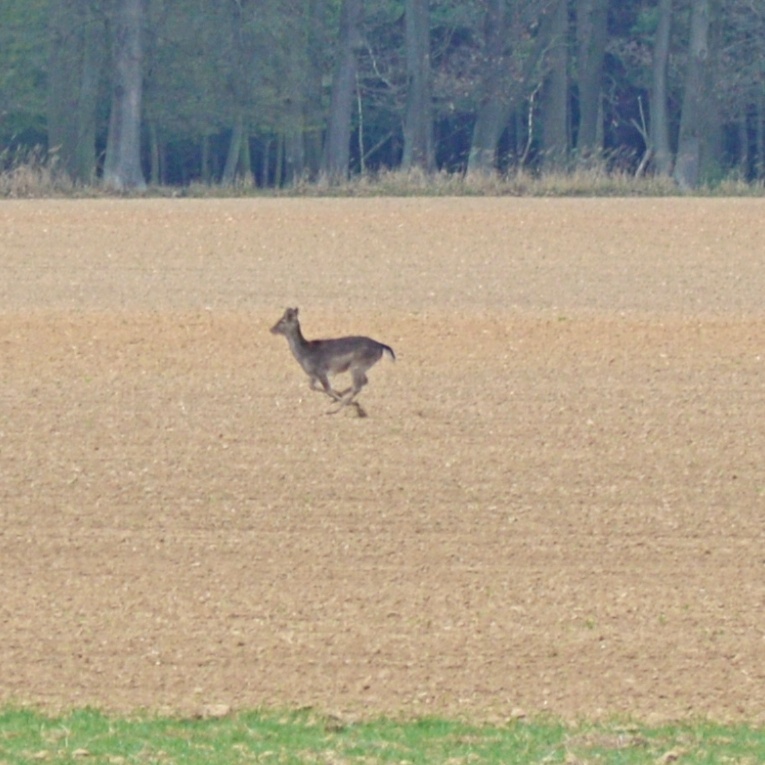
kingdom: Animalia
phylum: Chordata
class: Mammalia
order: Artiodactyla
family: Cervidae
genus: Dama
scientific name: Dama dama
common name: Fallow deer
